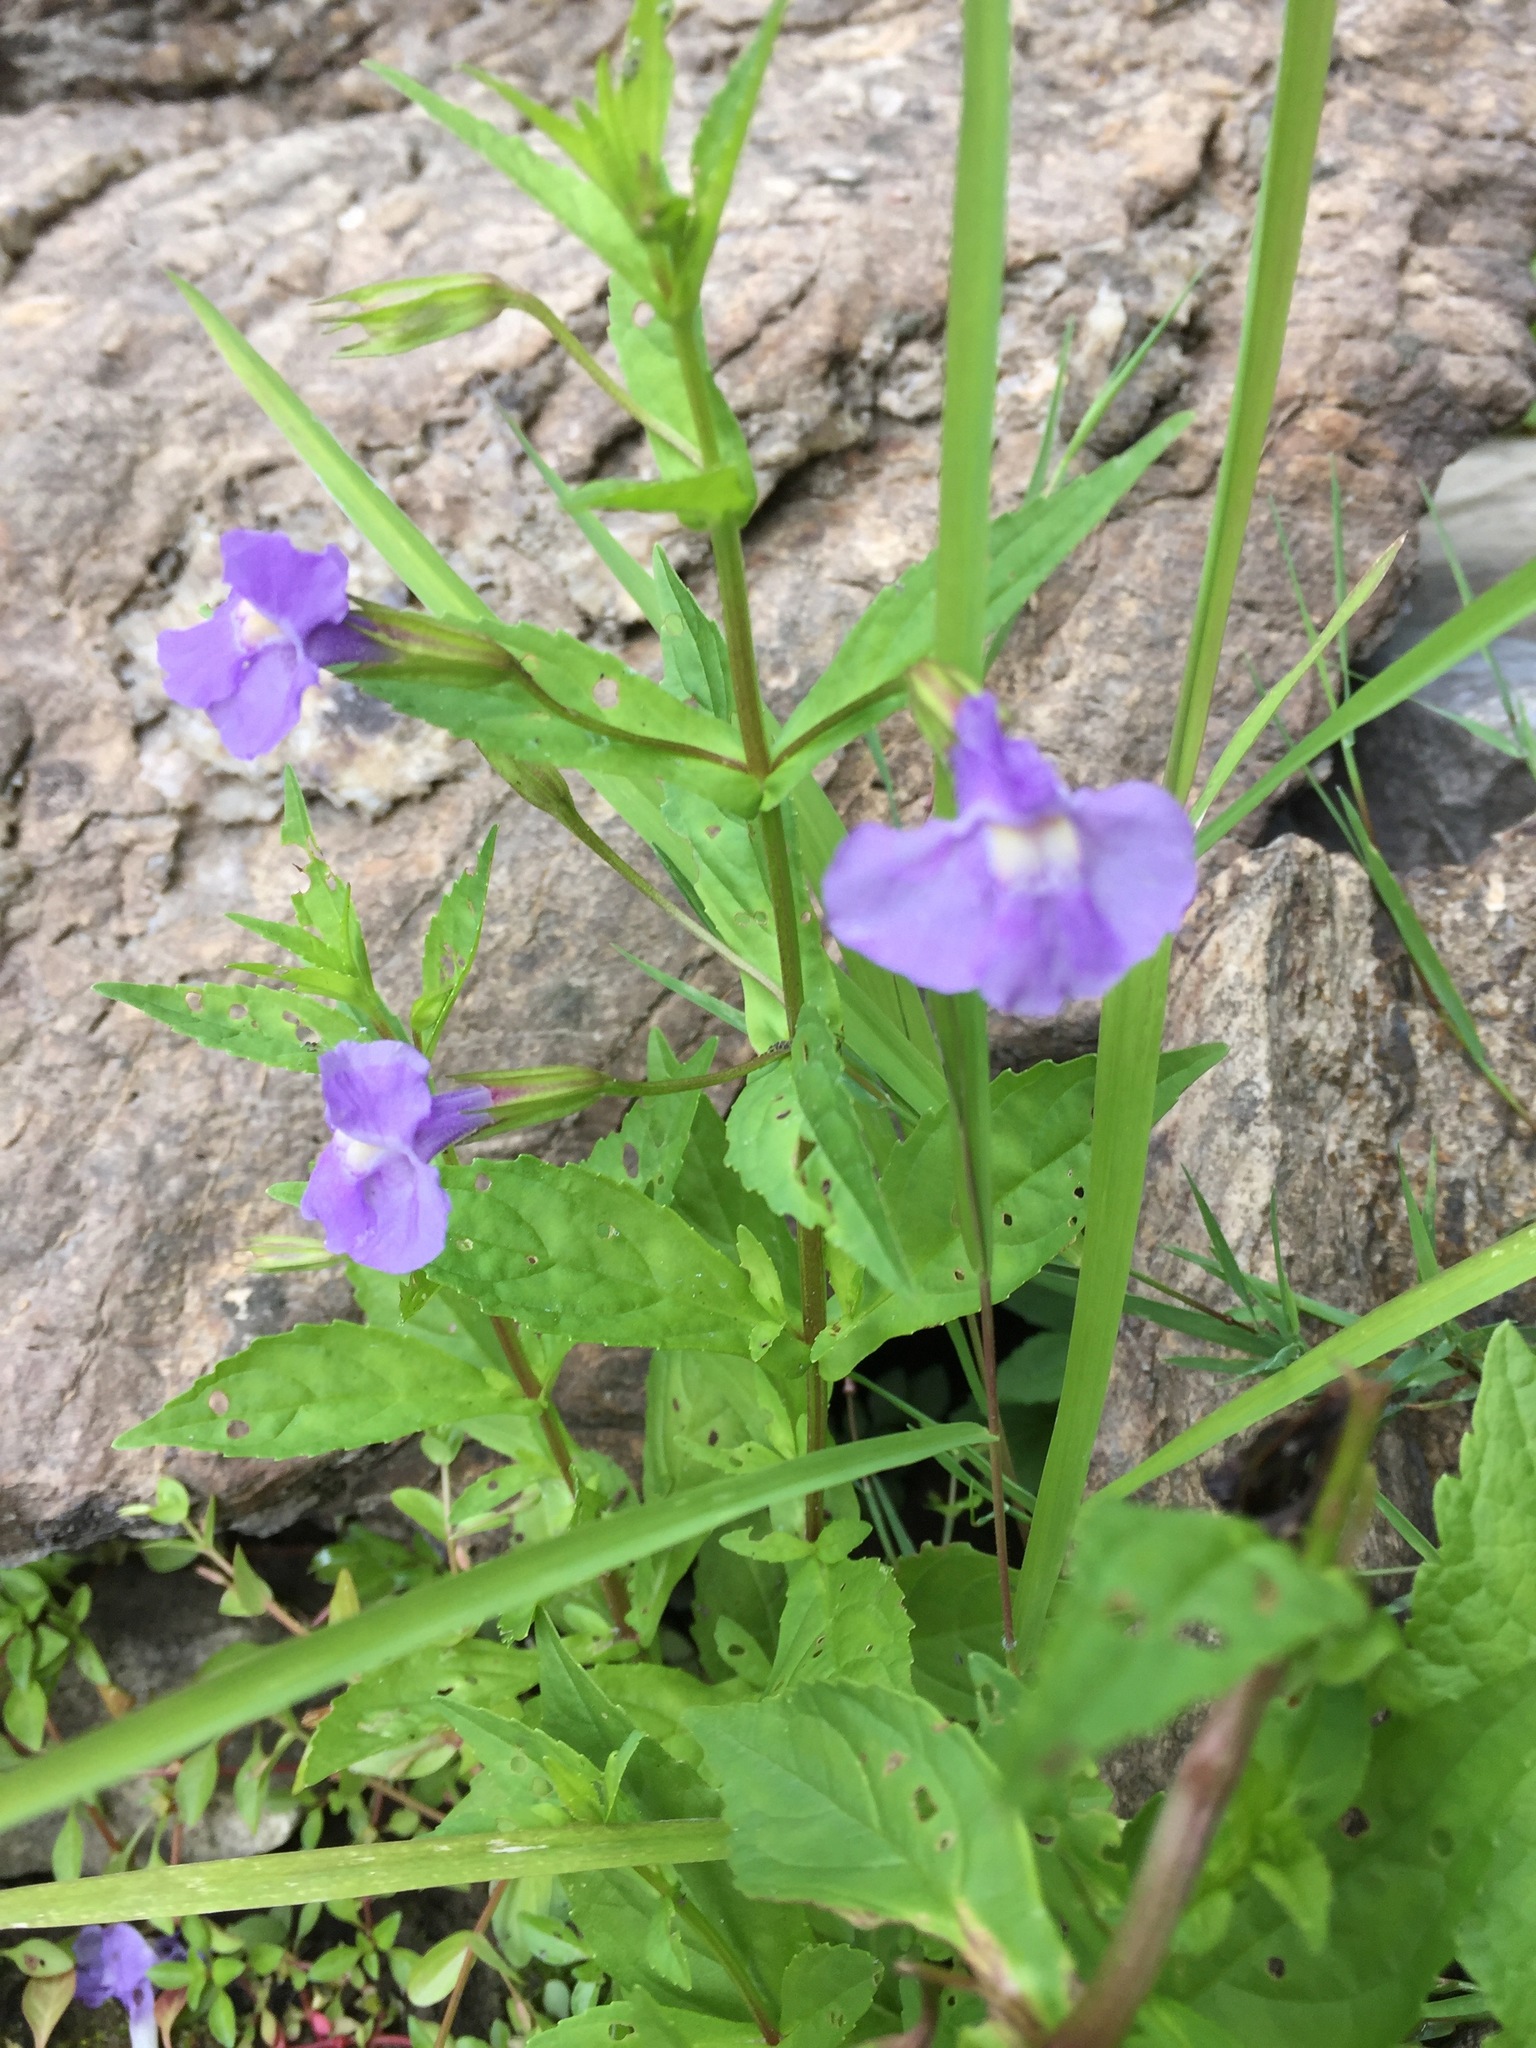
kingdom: Plantae
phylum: Tracheophyta
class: Magnoliopsida
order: Lamiales
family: Phrymaceae
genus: Mimulus
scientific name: Mimulus ringens
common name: Allegheny monkeyflower
